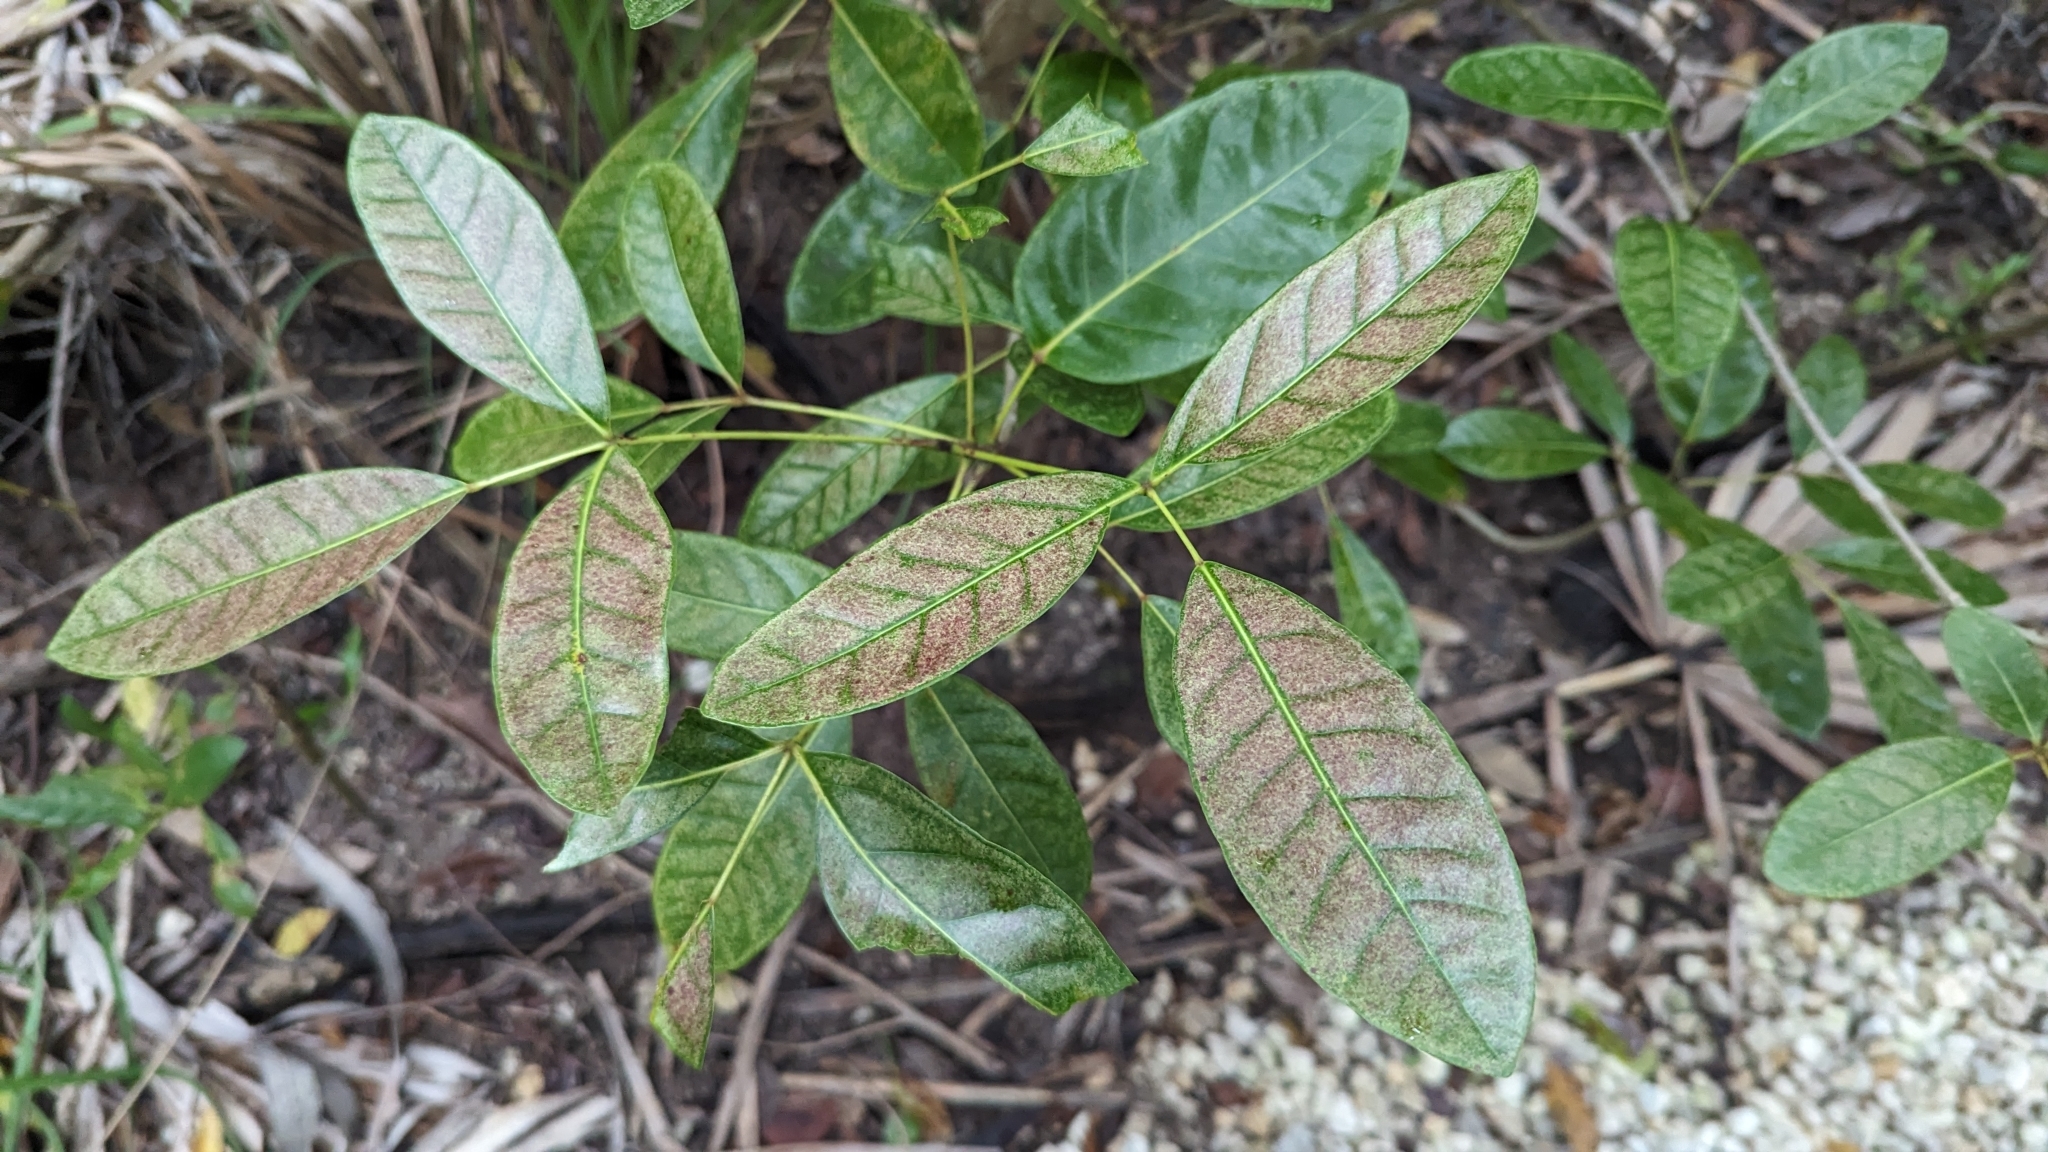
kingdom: Plantae
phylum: Tracheophyta
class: Magnoliopsida
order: Lamiales
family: Bignoniaceae
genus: Tabebuia
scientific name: Tabebuia heterophylla
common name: White cedar
